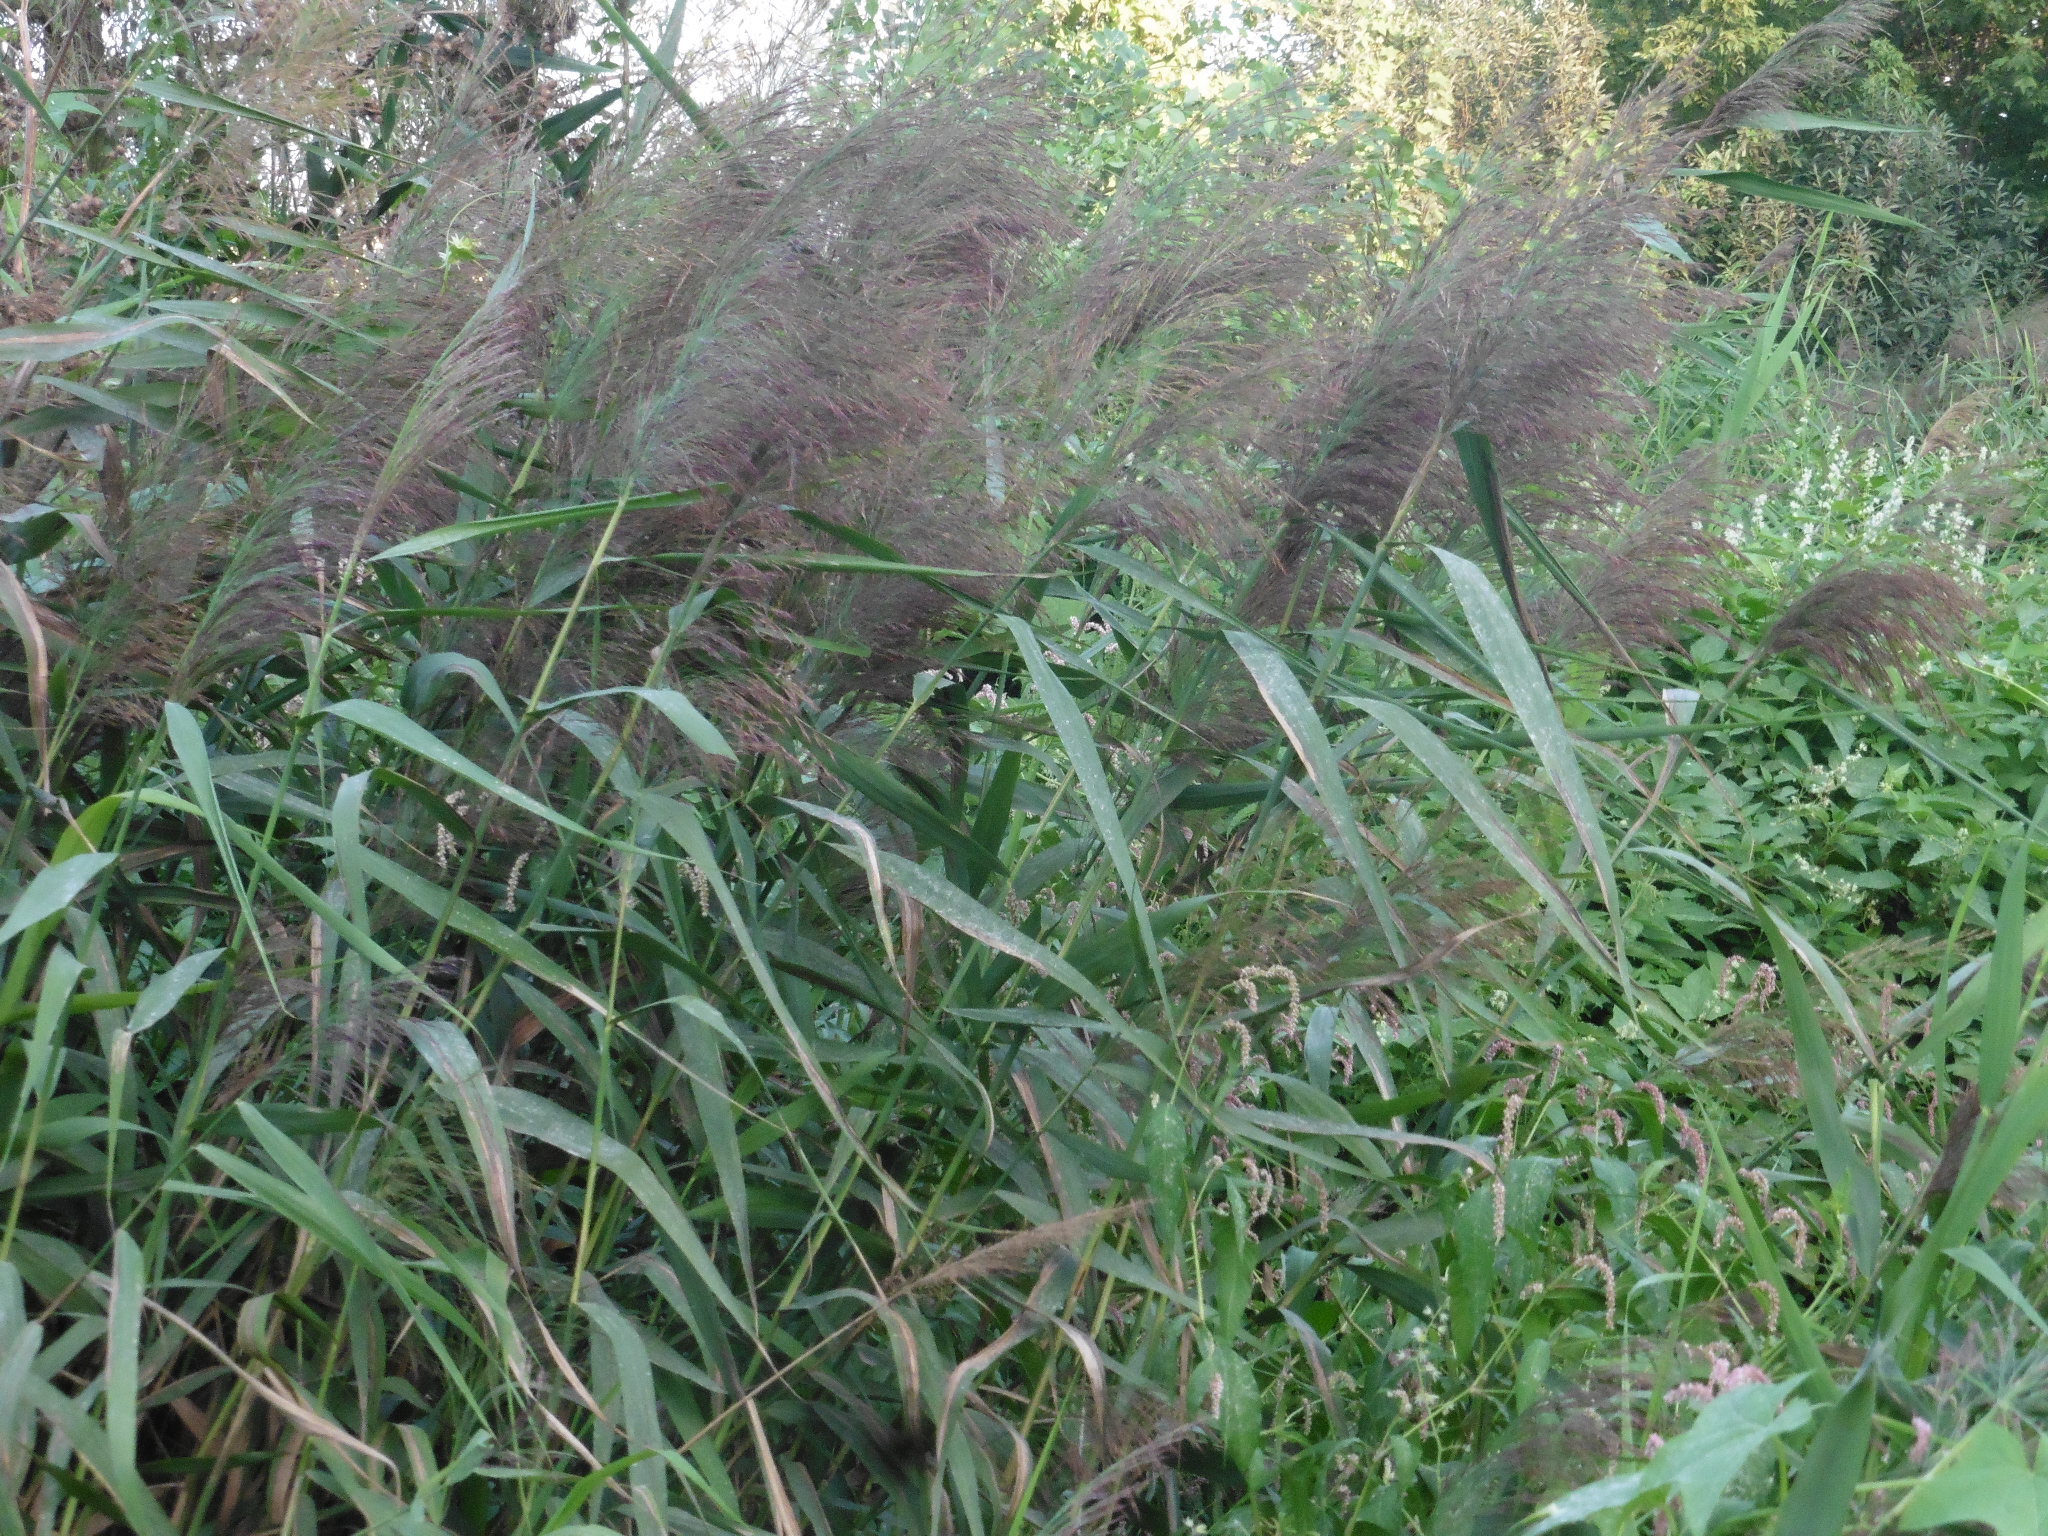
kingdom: Plantae
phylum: Tracheophyta
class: Liliopsida
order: Poales
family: Poaceae
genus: Phragmites
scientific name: Phragmites australis
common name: Common reed
